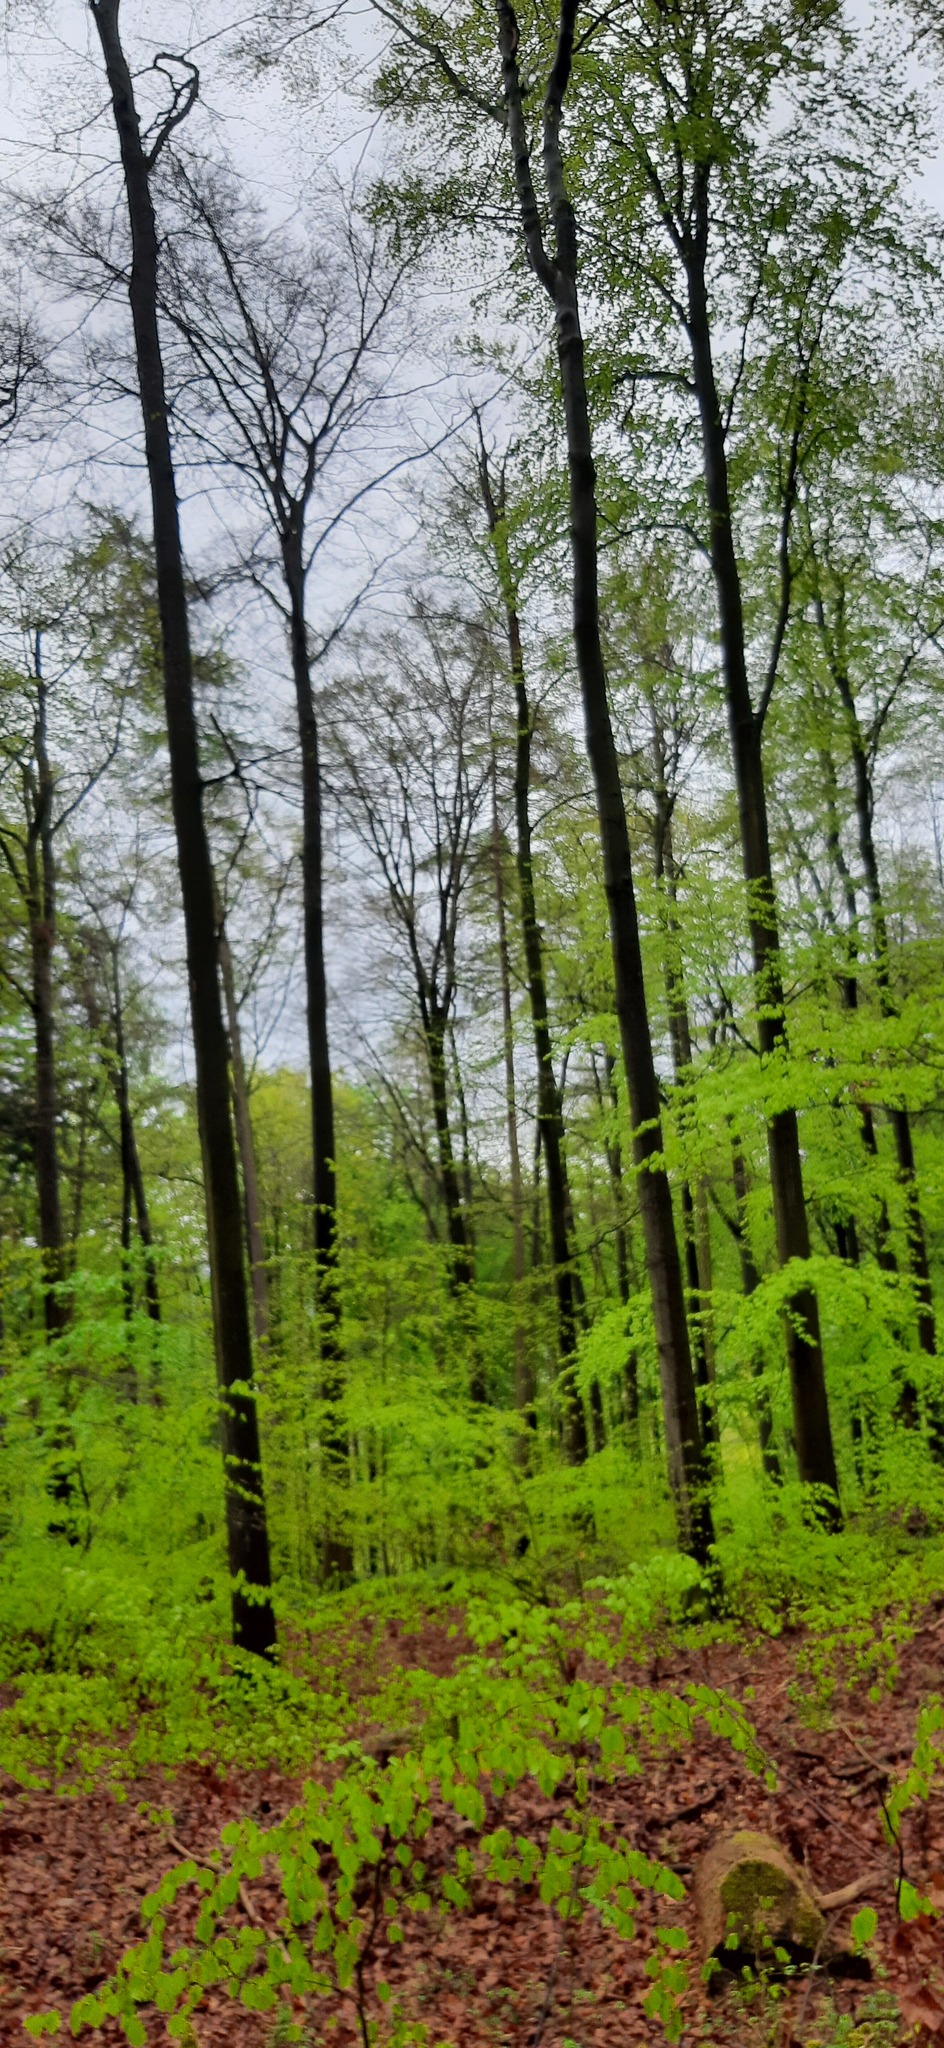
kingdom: Plantae
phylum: Tracheophyta
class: Magnoliopsida
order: Fagales
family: Fagaceae
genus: Fagus
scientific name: Fagus sylvatica
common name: Beech
